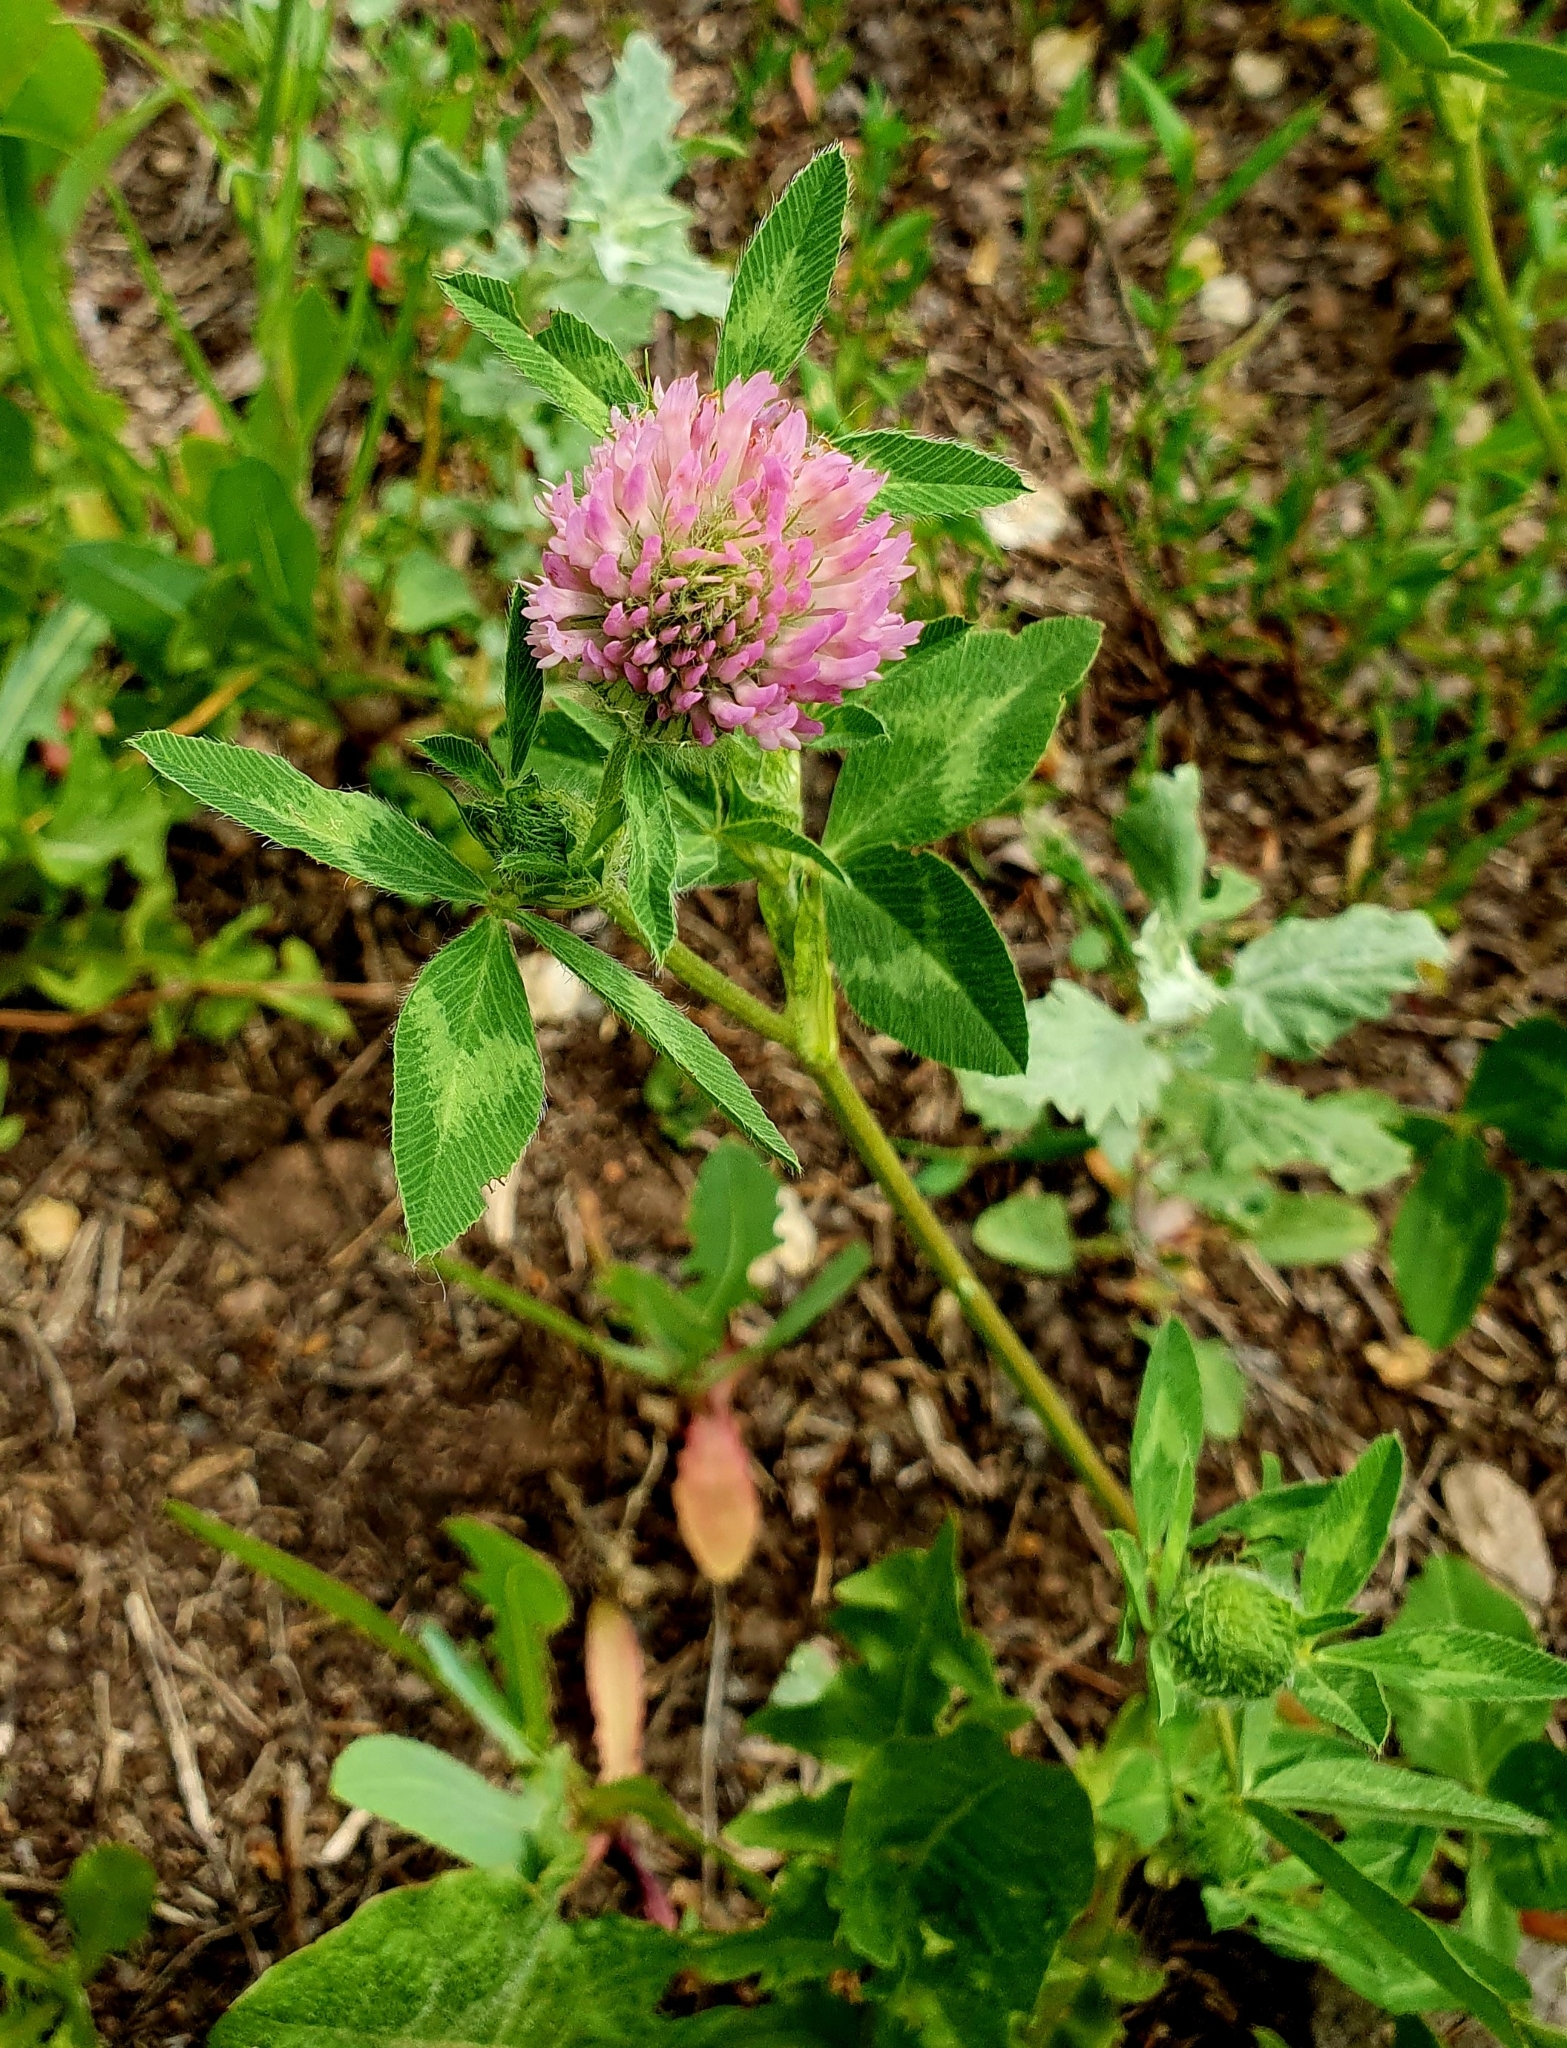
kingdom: Plantae
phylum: Tracheophyta
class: Magnoliopsida
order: Fabales
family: Fabaceae
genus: Trifolium
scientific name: Trifolium pratense
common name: Red clover
